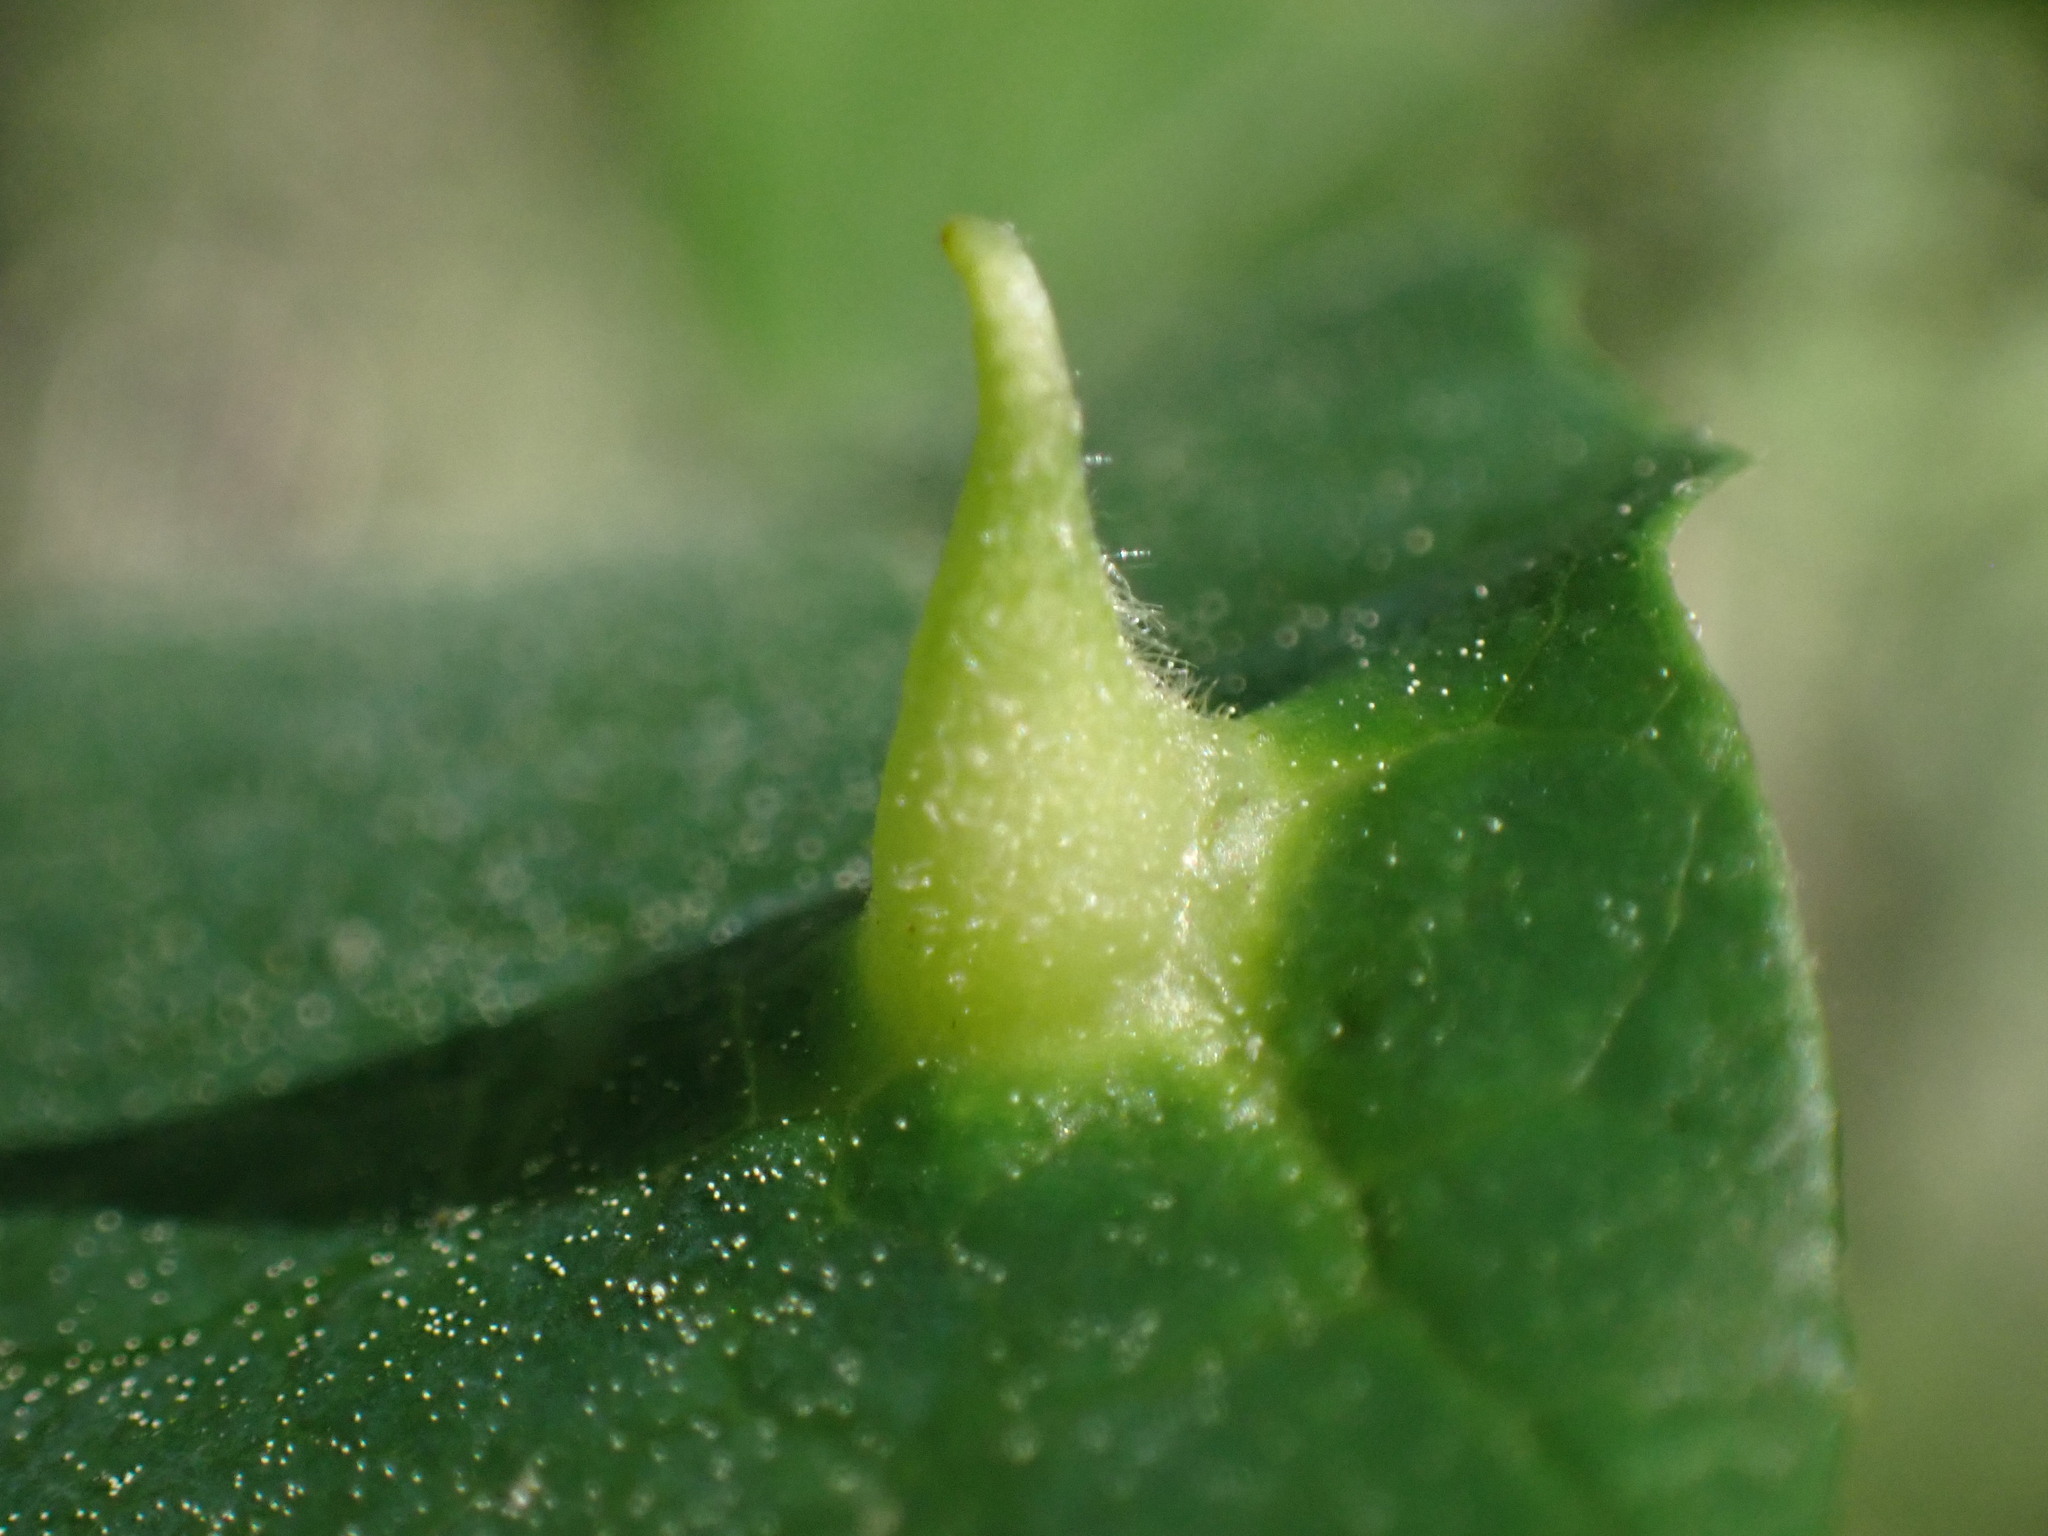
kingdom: Animalia
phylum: Arthropoda
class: Insecta
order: Hemiptera
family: Aphididae
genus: Hormaphis
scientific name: Hormaphis hamamelidis
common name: Witch-hazel cone gall aphid
